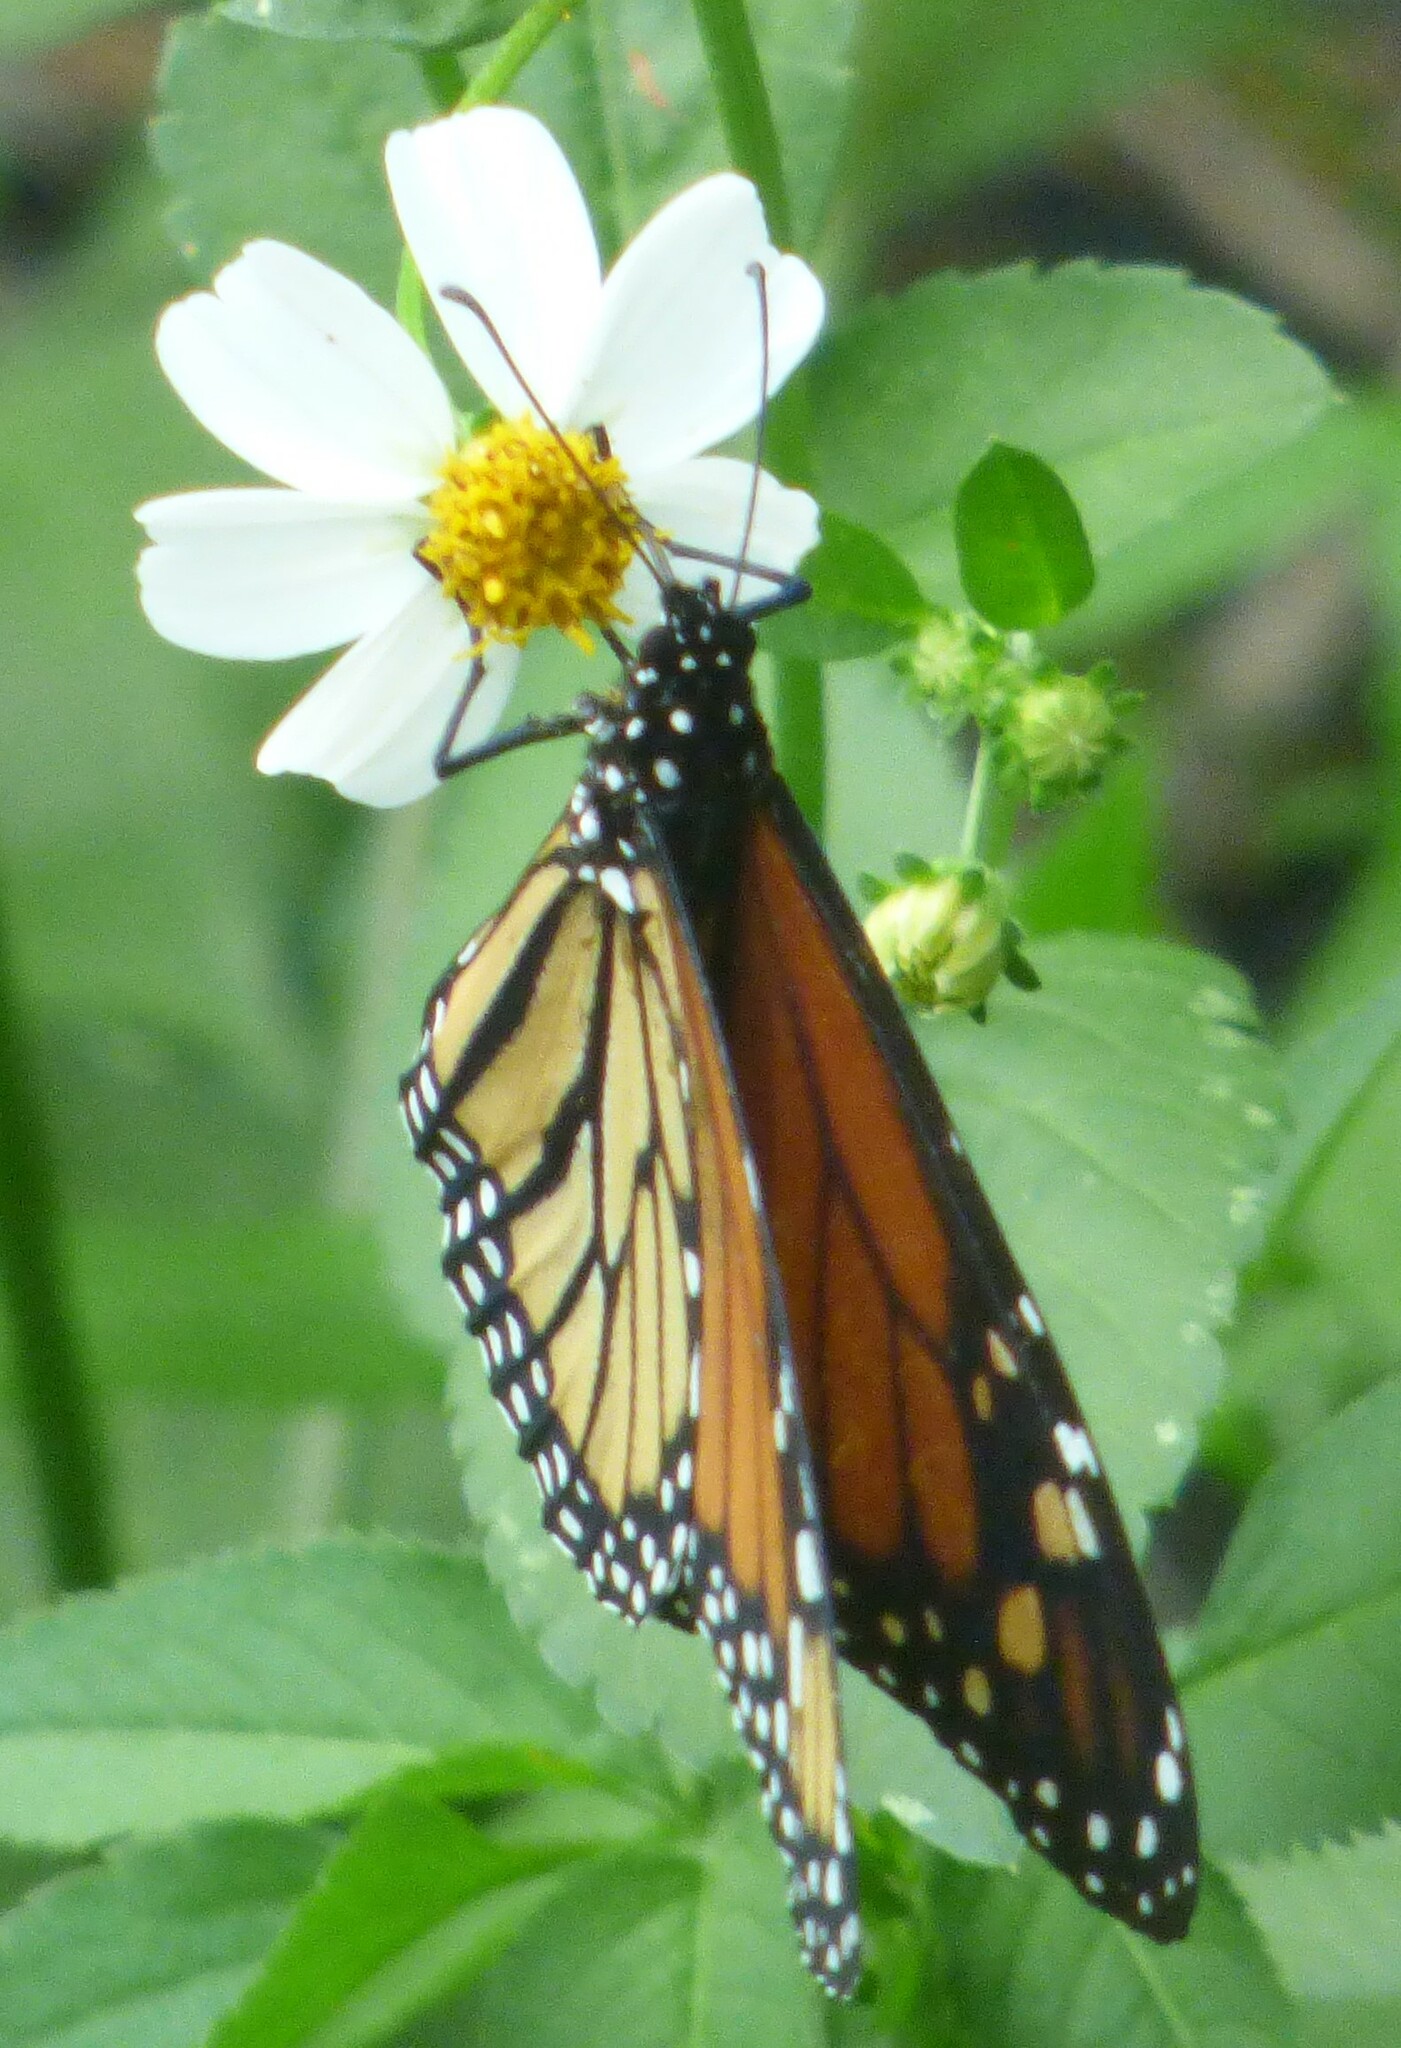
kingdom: Animalia
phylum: Arthropoda
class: Insecta
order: Lepidoptera
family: Nymphalidae
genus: Danaus
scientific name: Danaus plexippus
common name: Monarch
